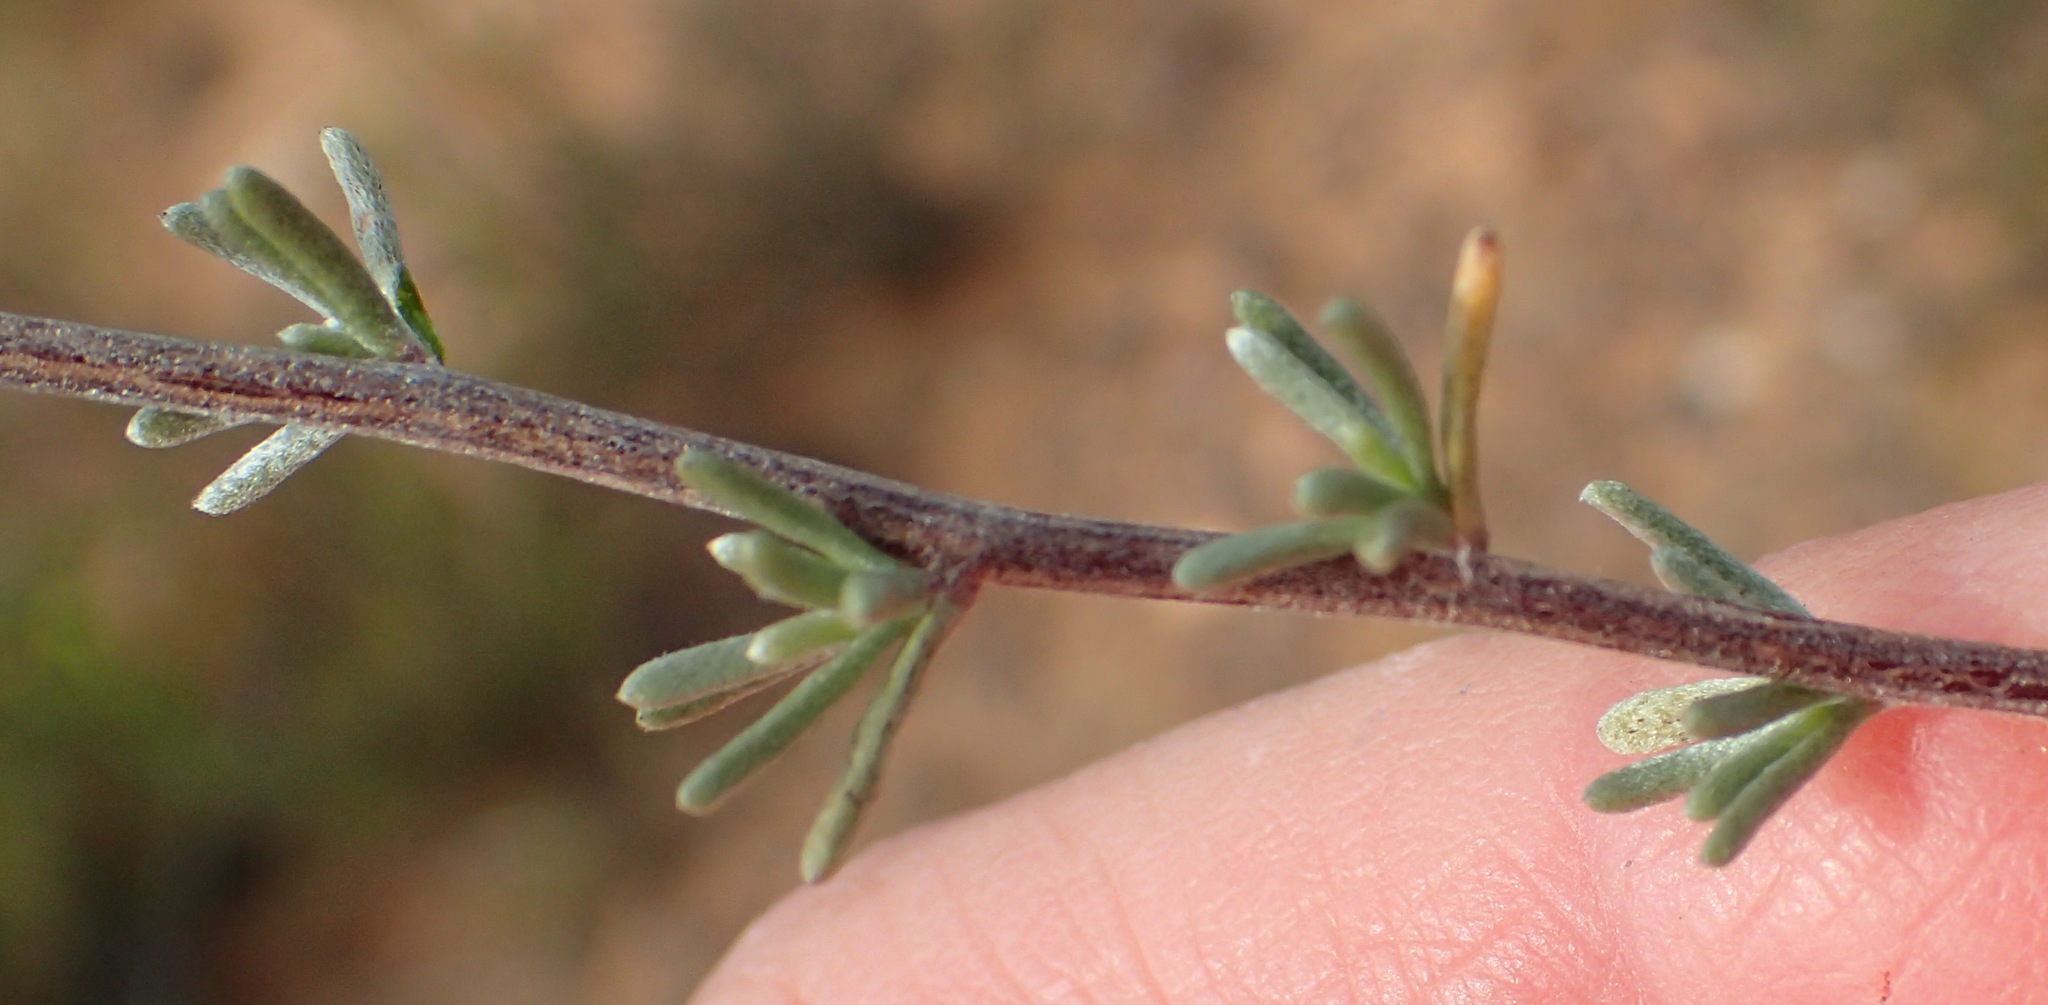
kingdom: Plantae
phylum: Tracheophyta
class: Magnoliopsida
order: Asterales
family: Asteraceae
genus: Eriocephalus
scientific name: Eriocephalus brevifolius
